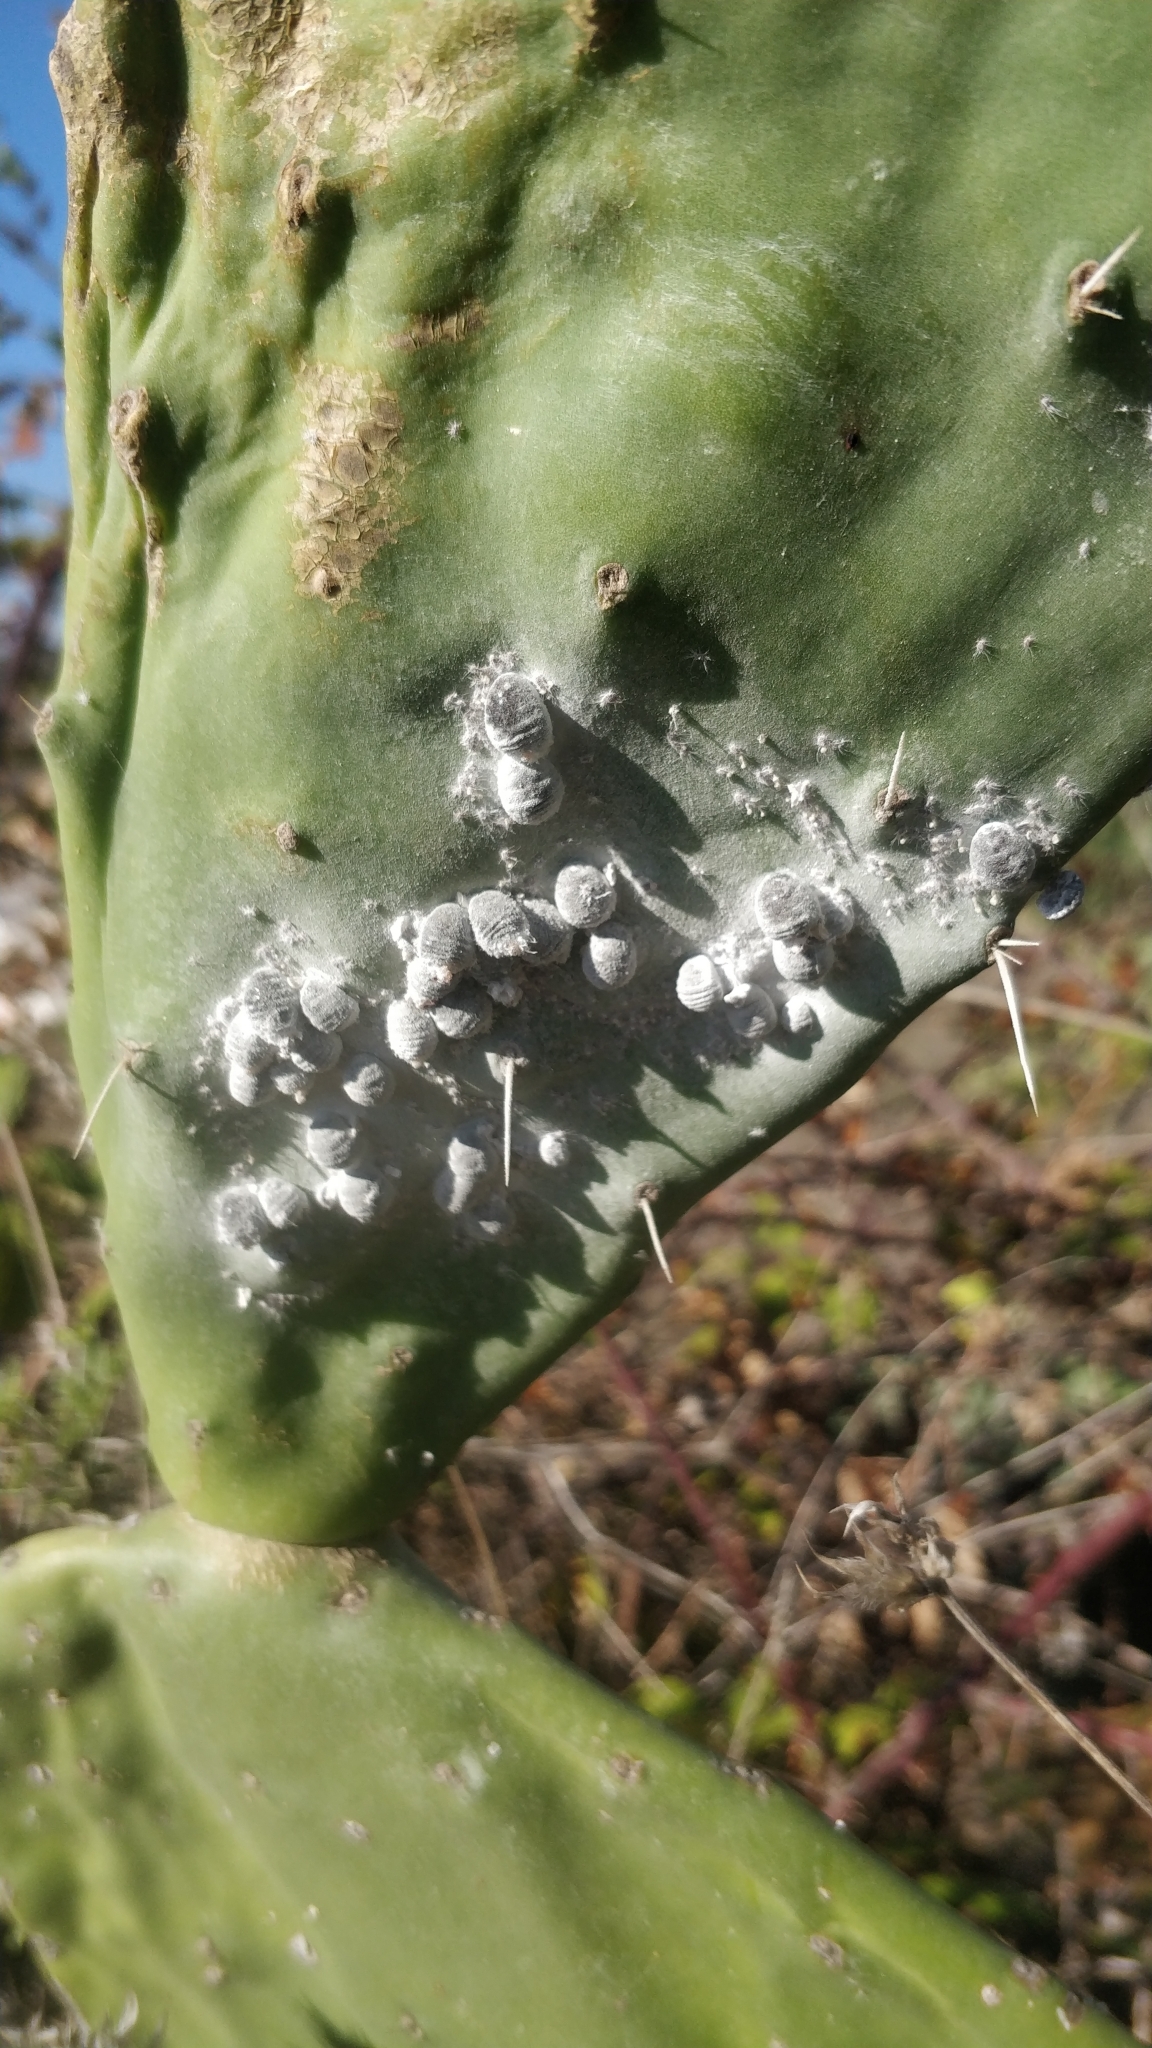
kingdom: Animalia
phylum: Arthropoda
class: Insecta
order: Hemiptera
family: Dactylopiidae
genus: Dactylopius
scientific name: Dactylopius coccus
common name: Cochineal
